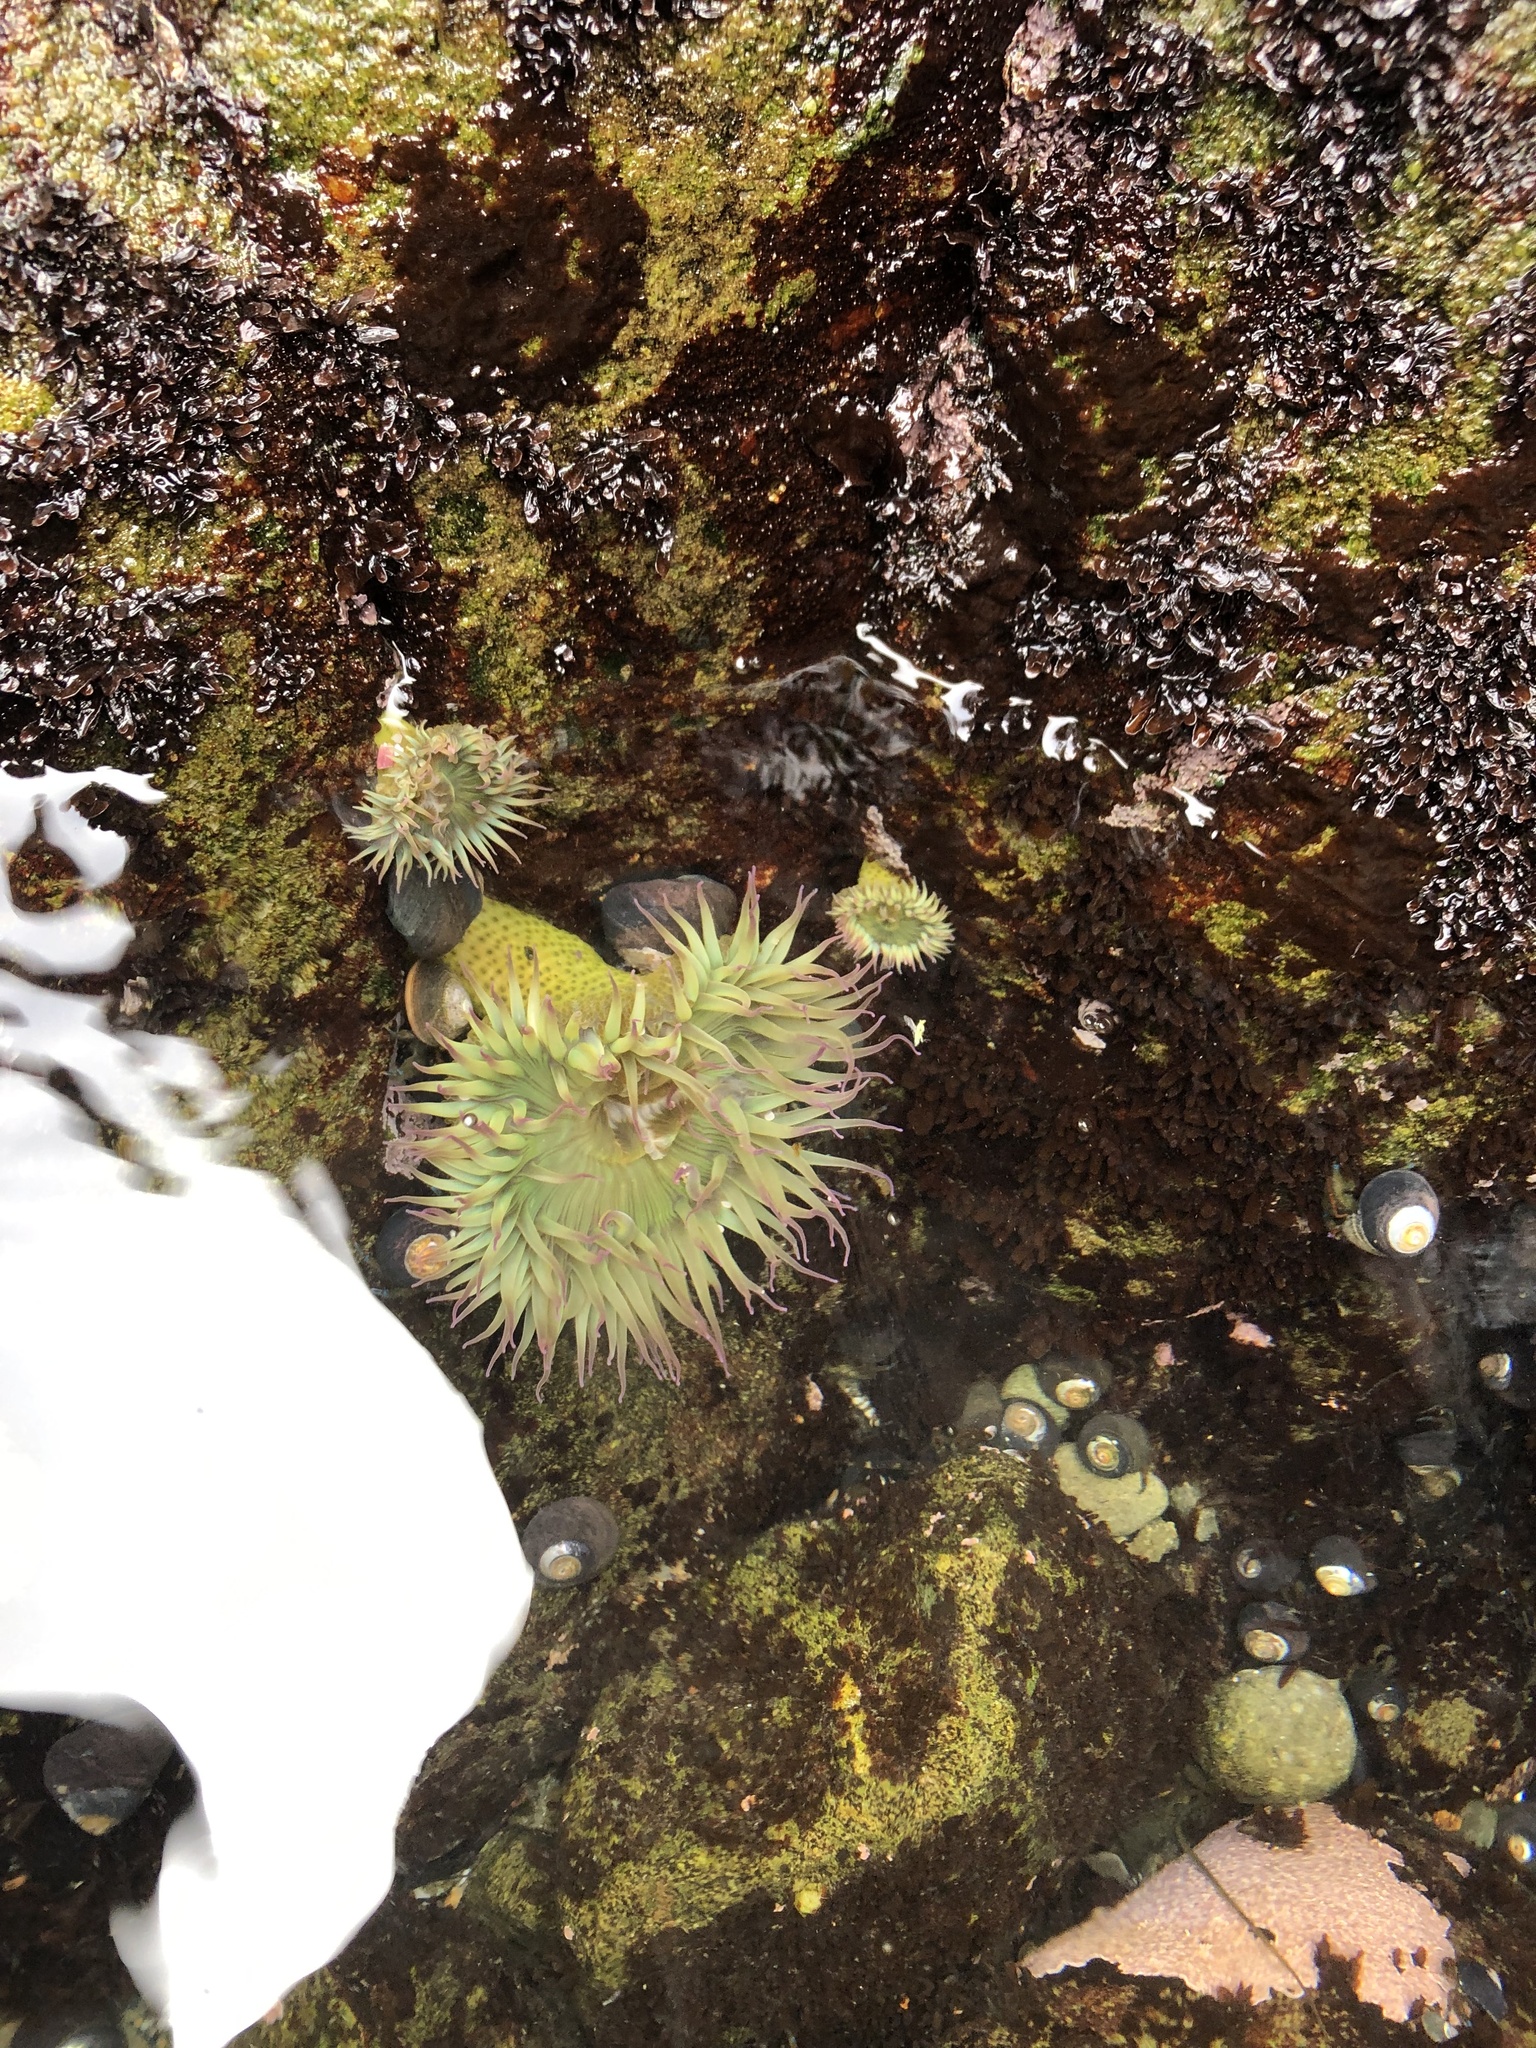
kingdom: Animalia
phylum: Cnidaria
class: Anthozoa
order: Actiniaria
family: Actiniidae
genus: Anthopleura
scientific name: Anthopleura elegantissima
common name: Clonal anemone
